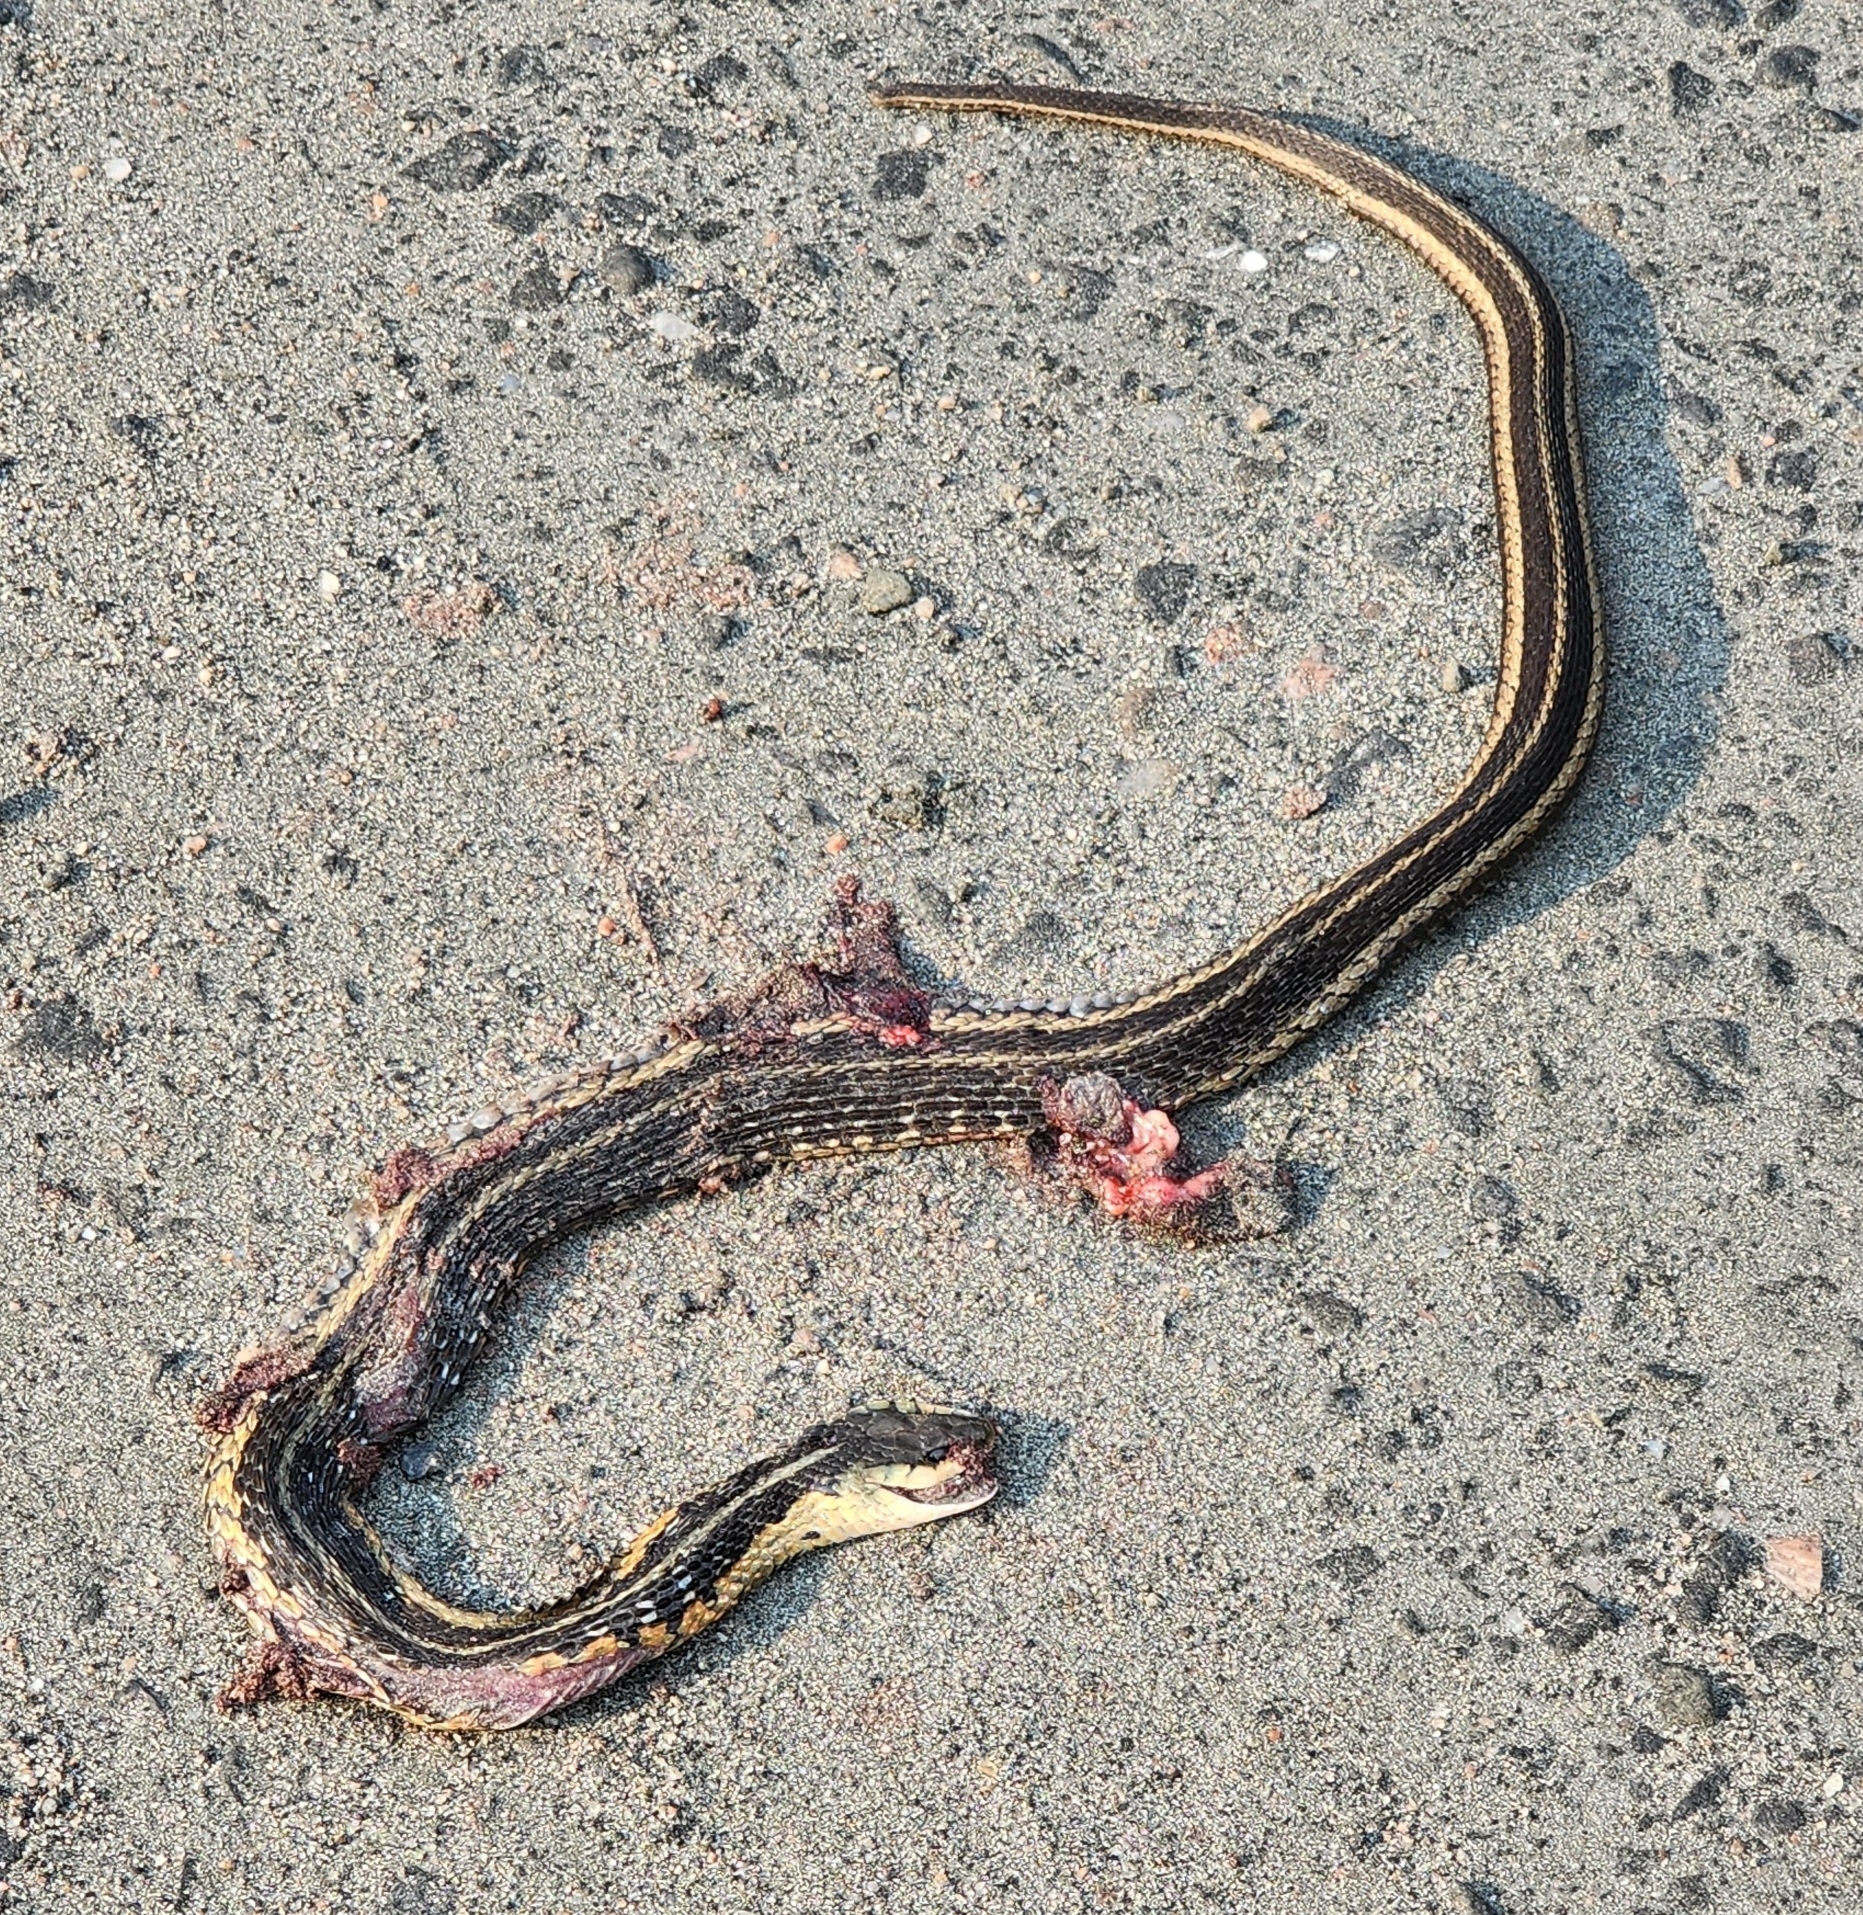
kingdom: Animalia
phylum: Chordata
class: Squamata
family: Colubridae
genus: Thamnophis
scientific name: Thamnophis sirtalis
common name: Common garter snake
